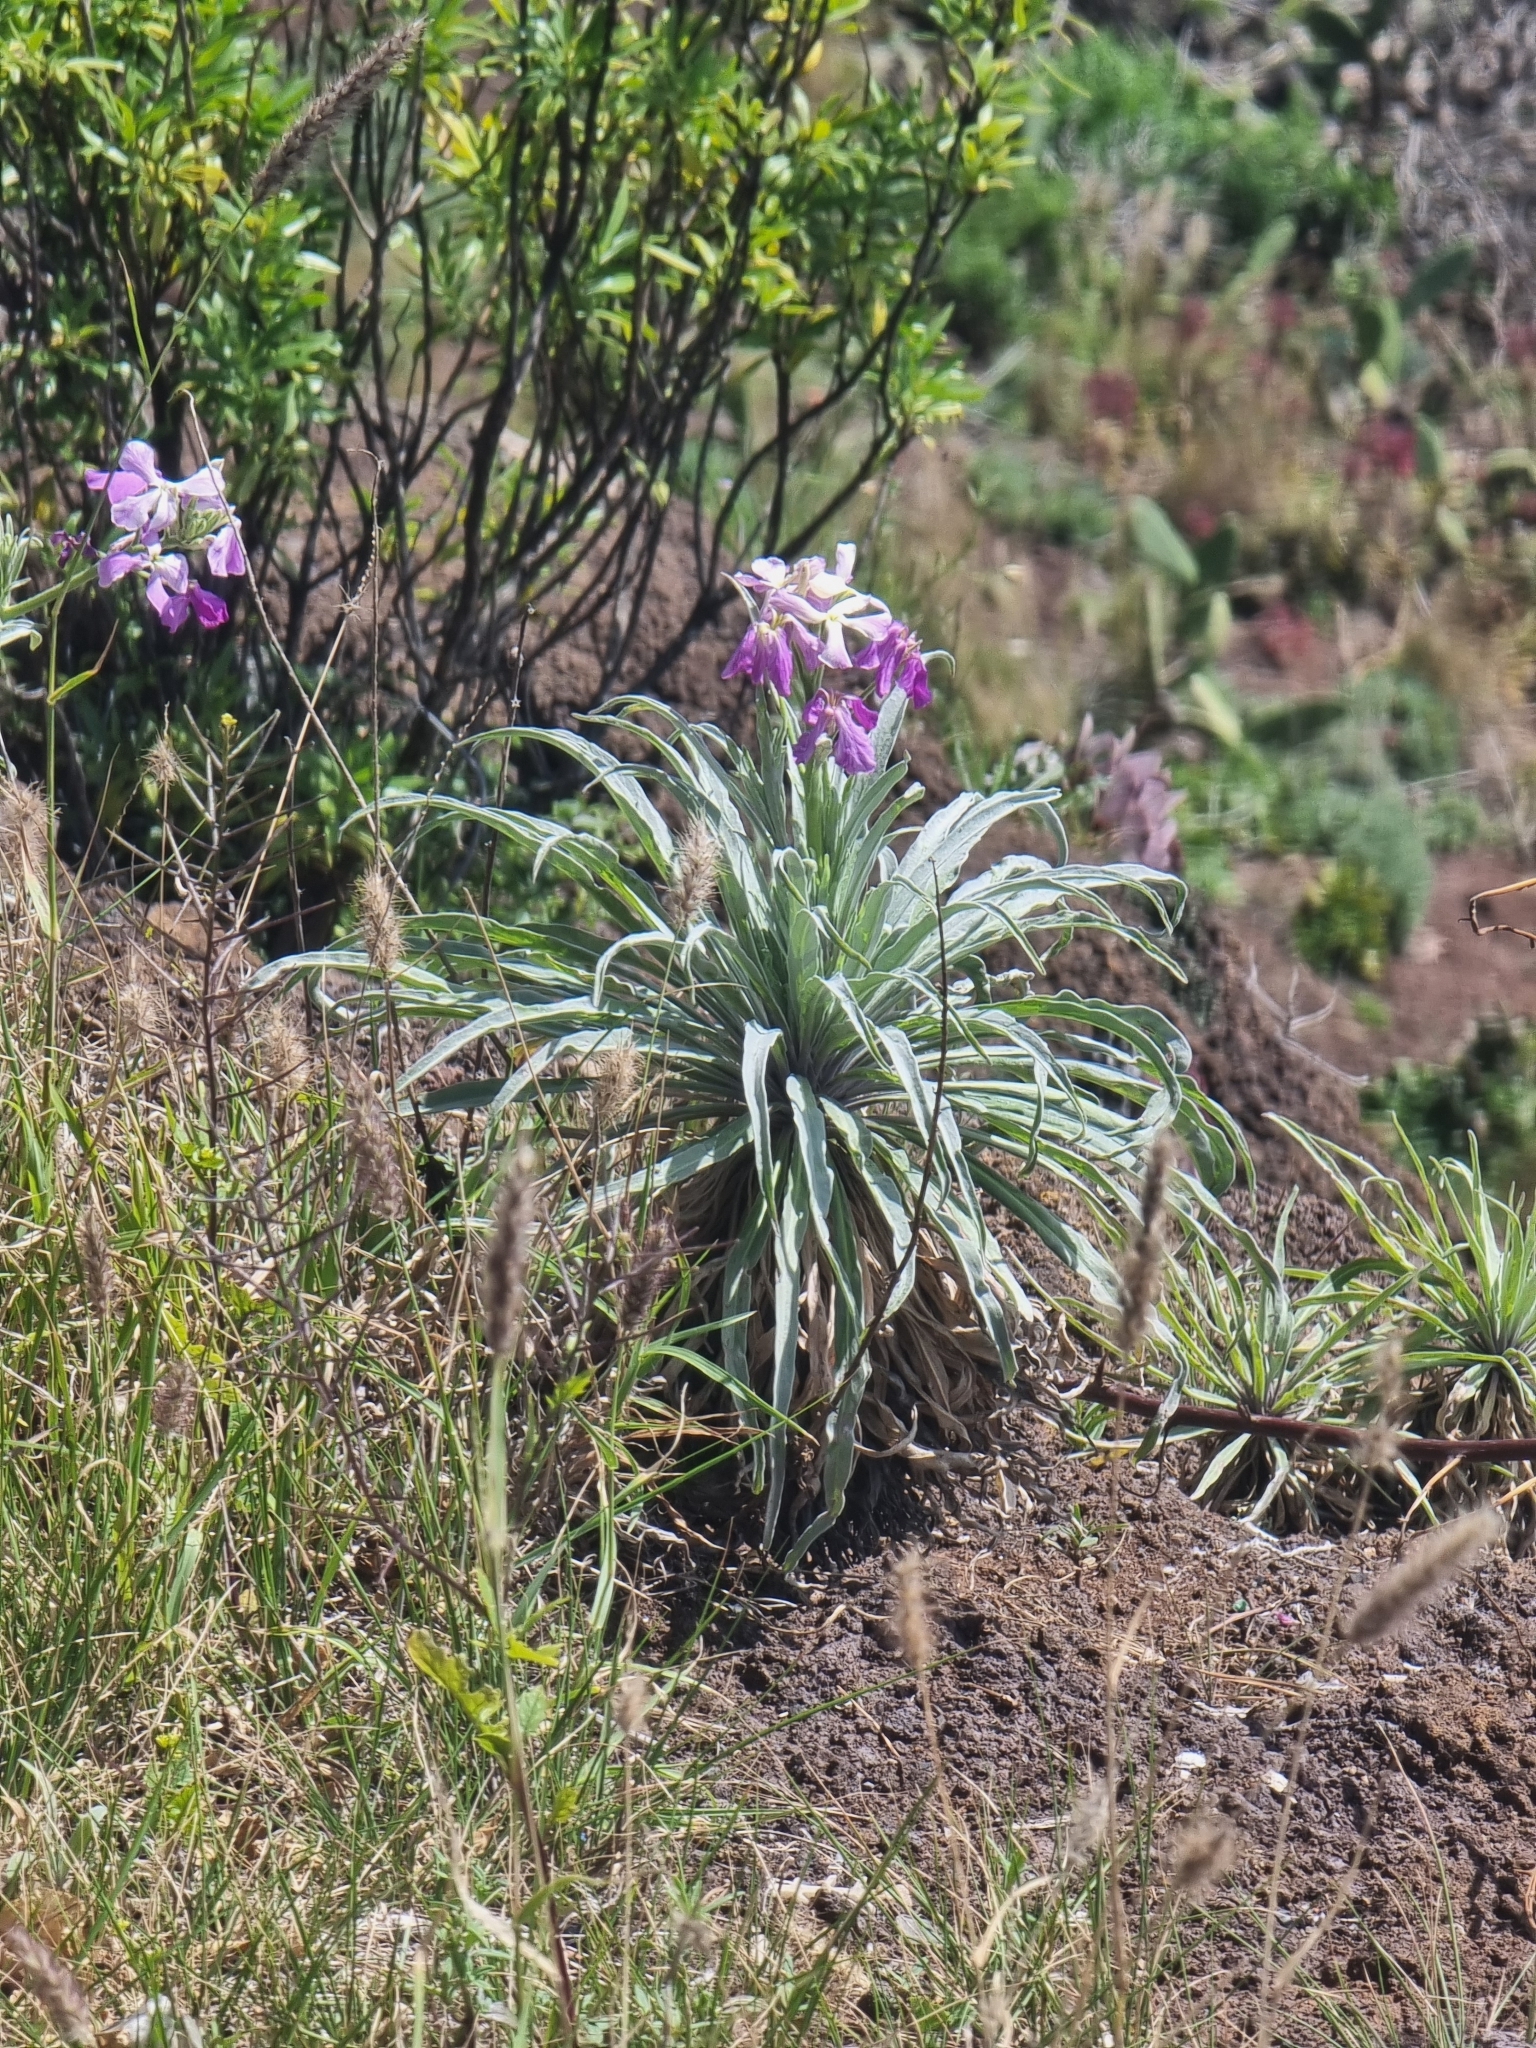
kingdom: Plantae
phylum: Tracheophyta
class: Magnoliopsida
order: Brassicales
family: Brassicaceae
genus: Matthiola
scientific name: Matthiola maderensis
